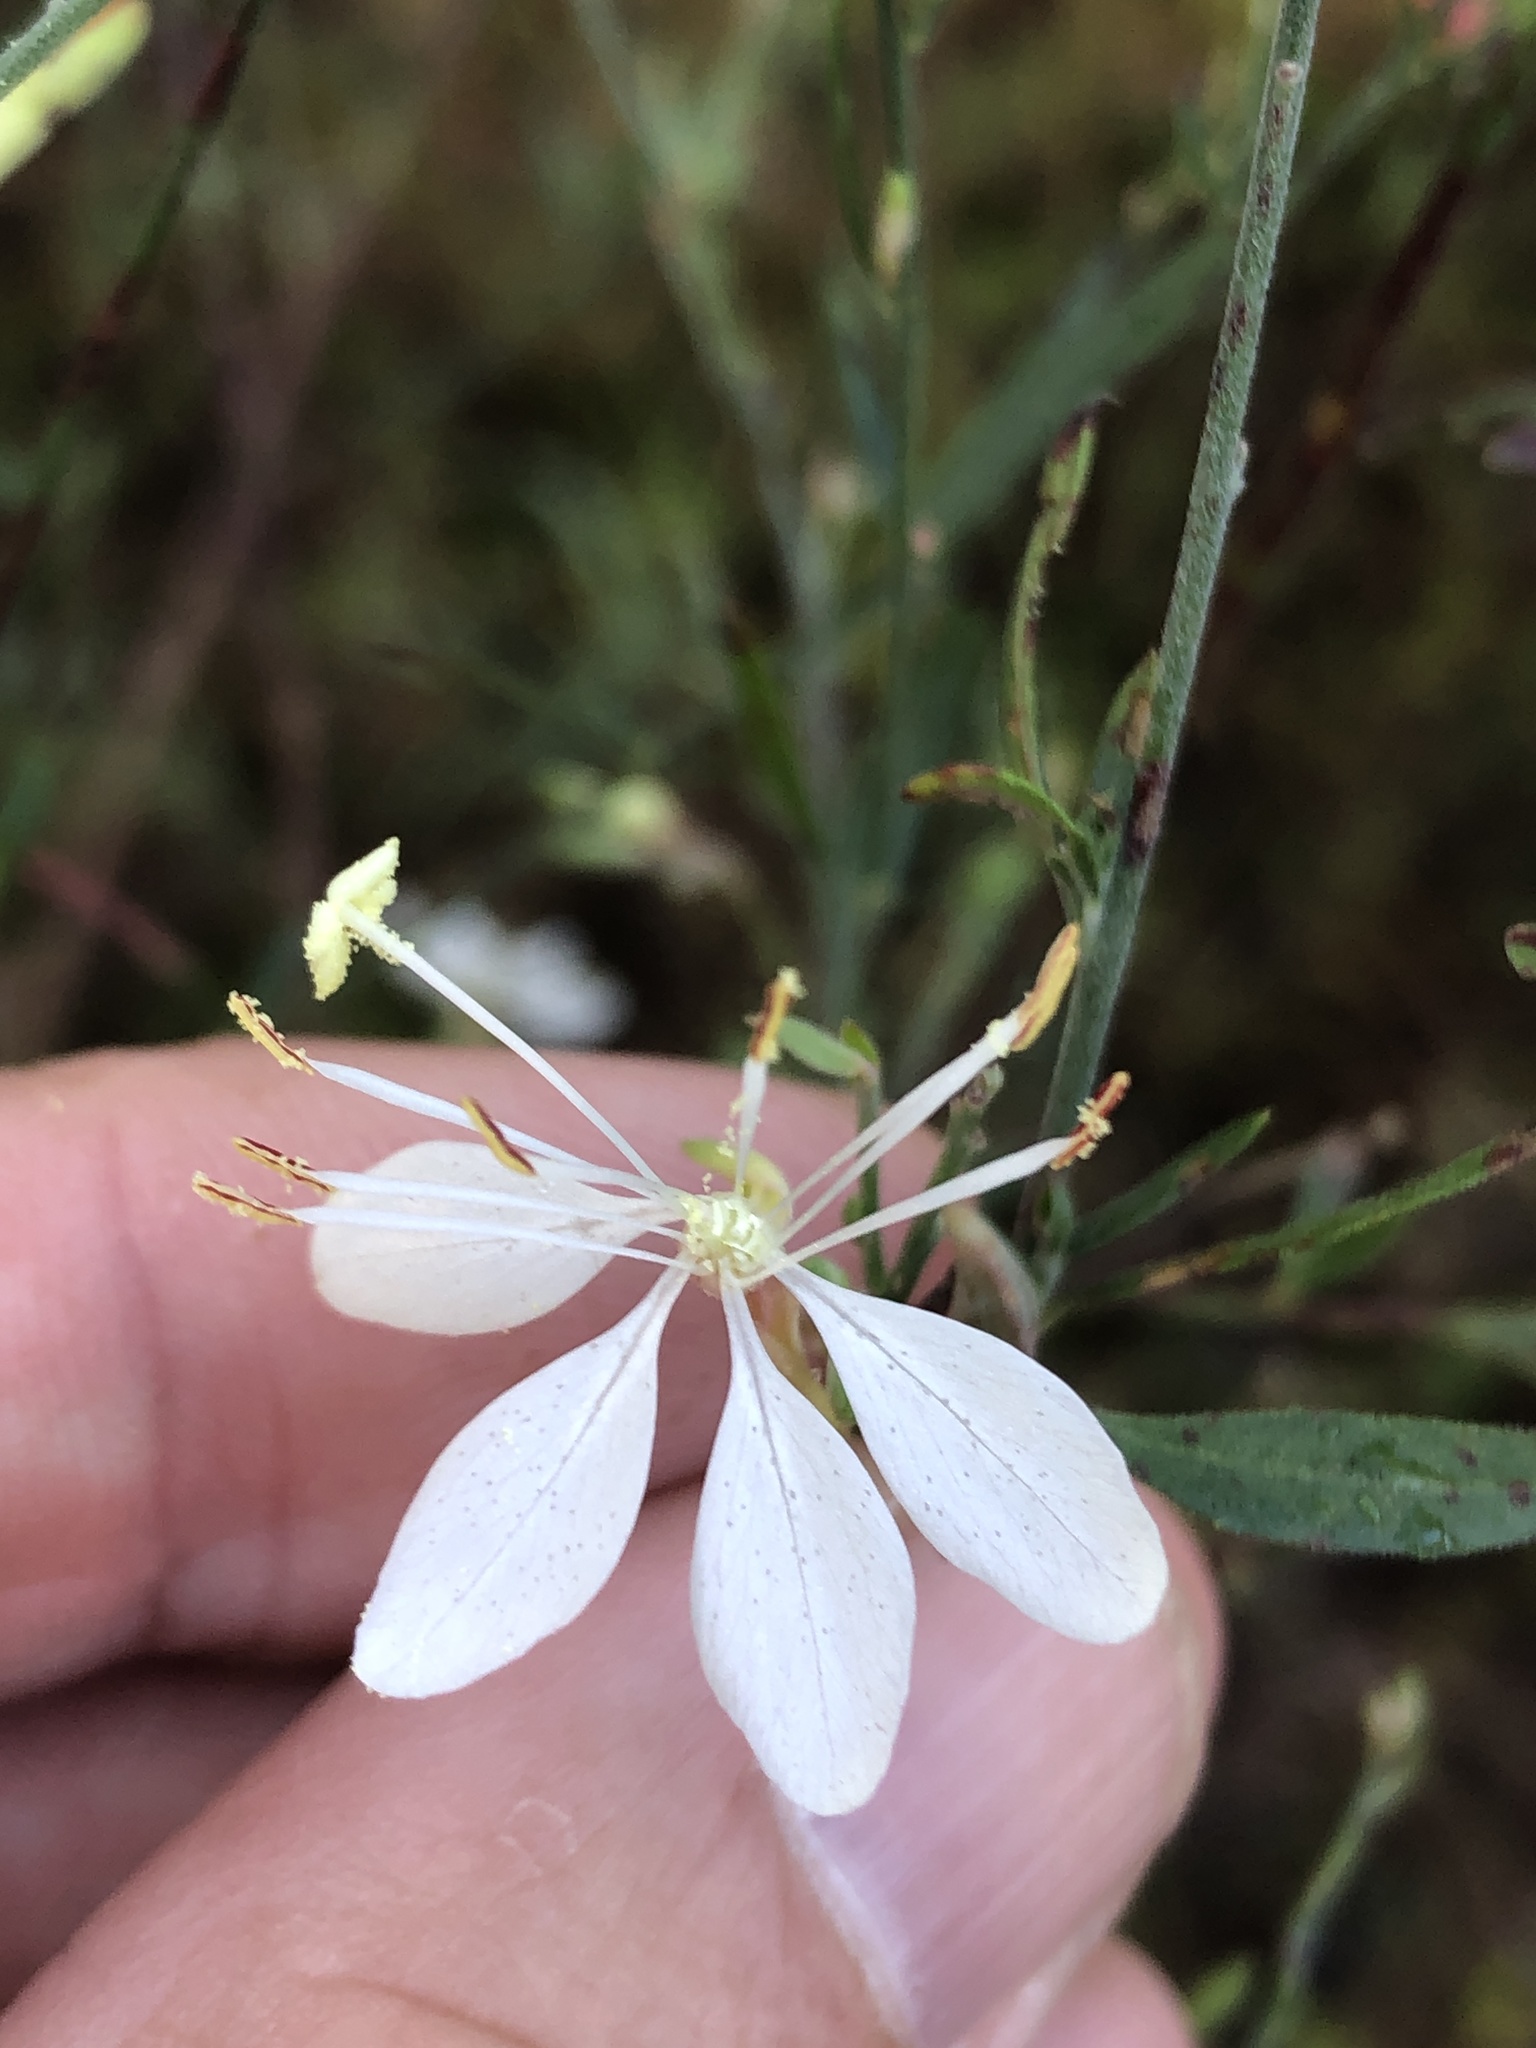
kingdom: Plantae
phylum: Tracheophyta
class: Magnoliopsida
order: Myrtales
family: Onagraceae
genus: Oenothera
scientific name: Oenothera lindheimeri
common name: Lindheimer's beeblossom
